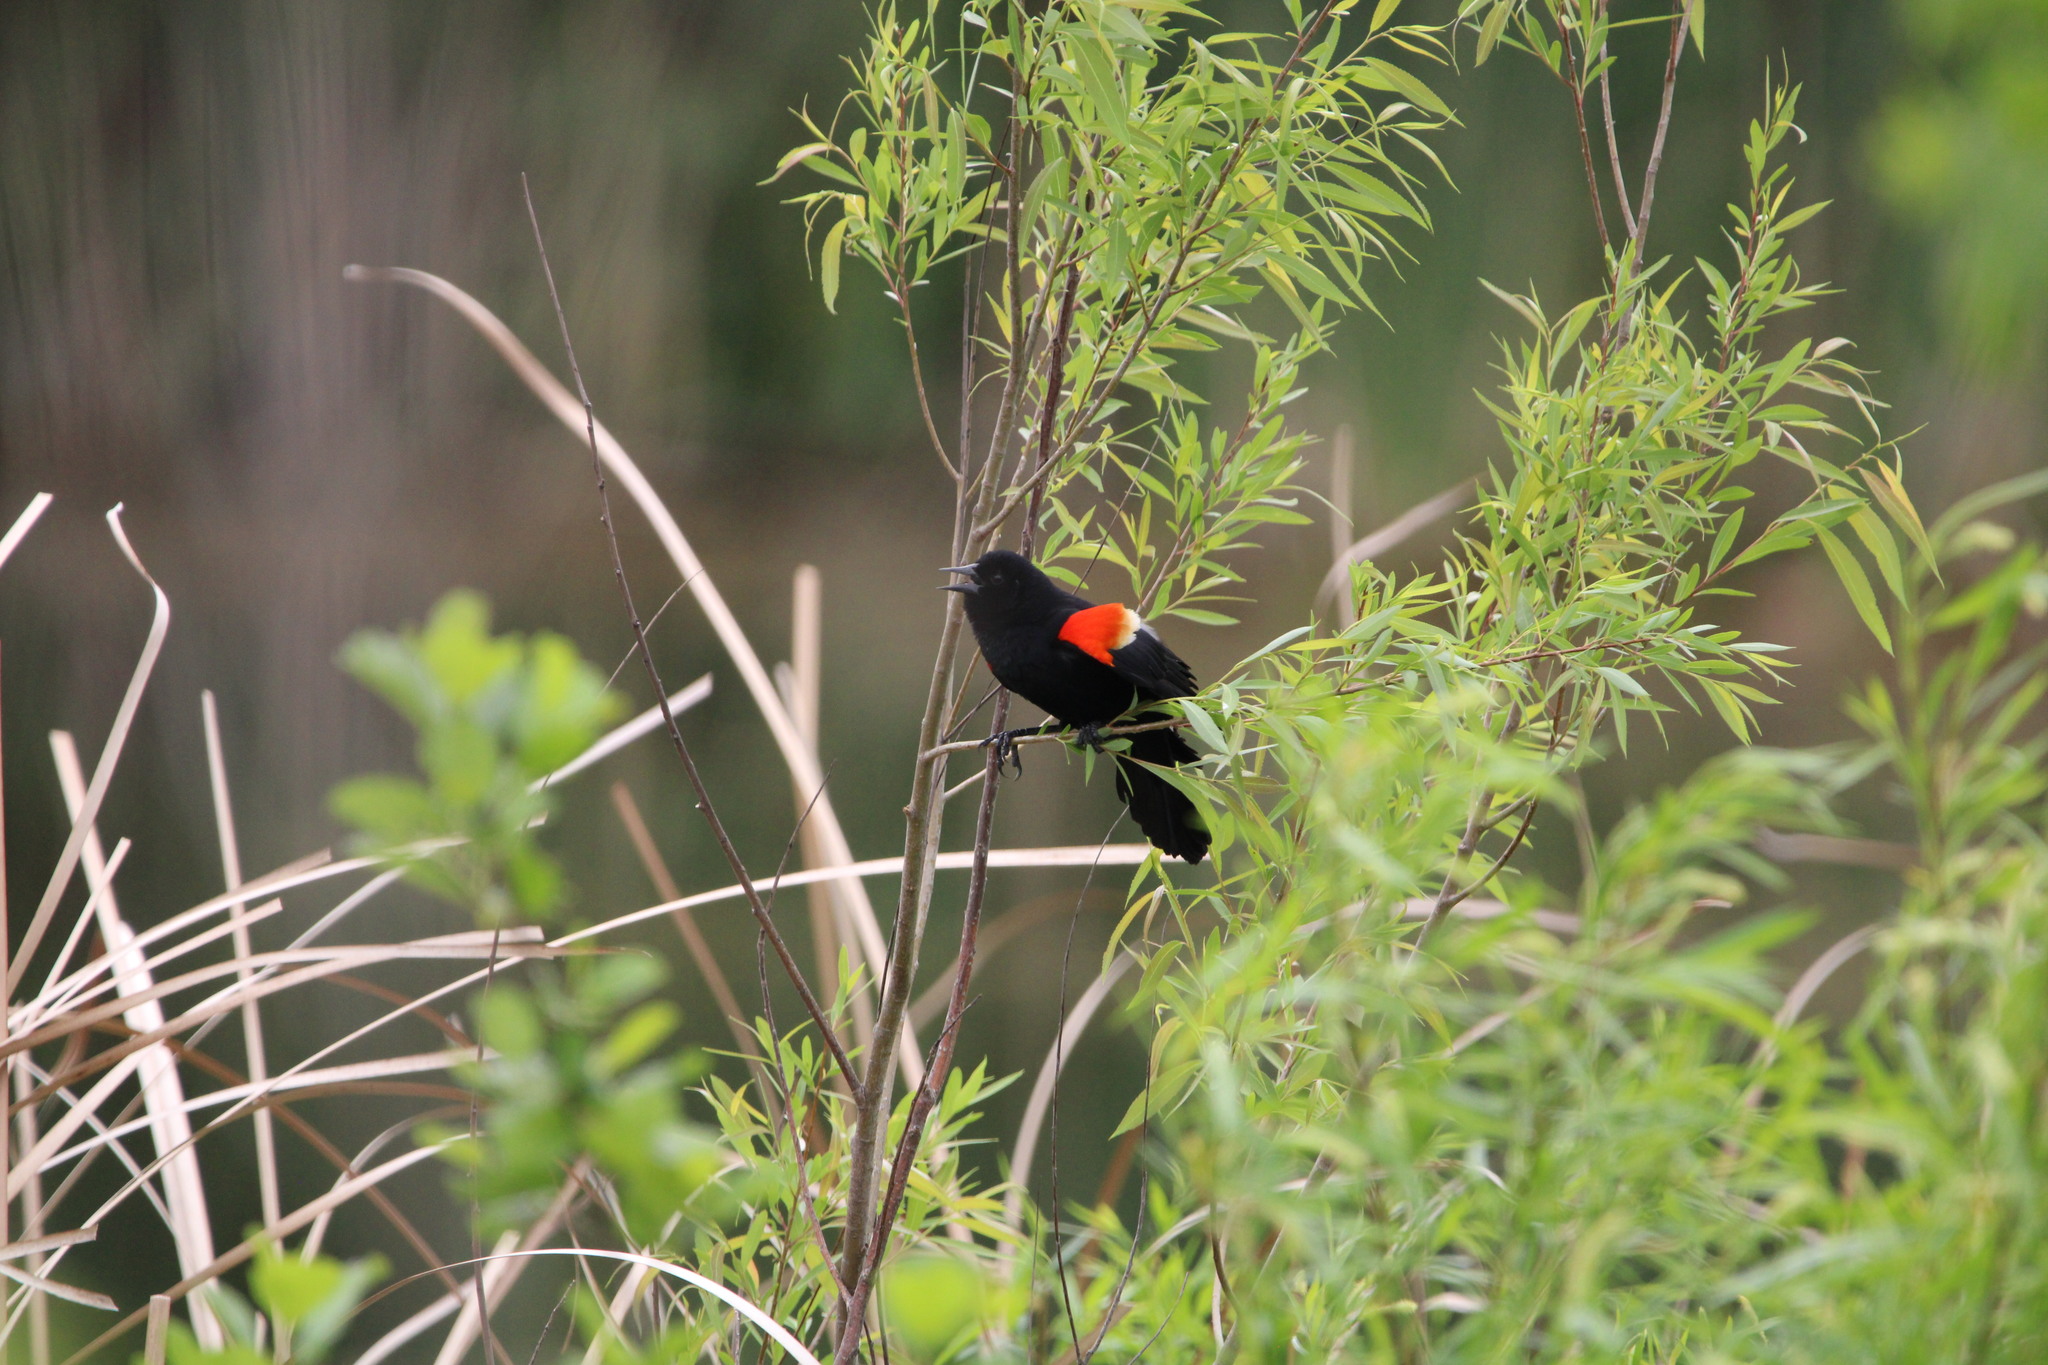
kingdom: Animalia
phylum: Chordata
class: Aves
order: Passeriformes
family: Icteridae
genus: Agelaius
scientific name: Agelaius phoeniceus
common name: Red-winged blackbird
